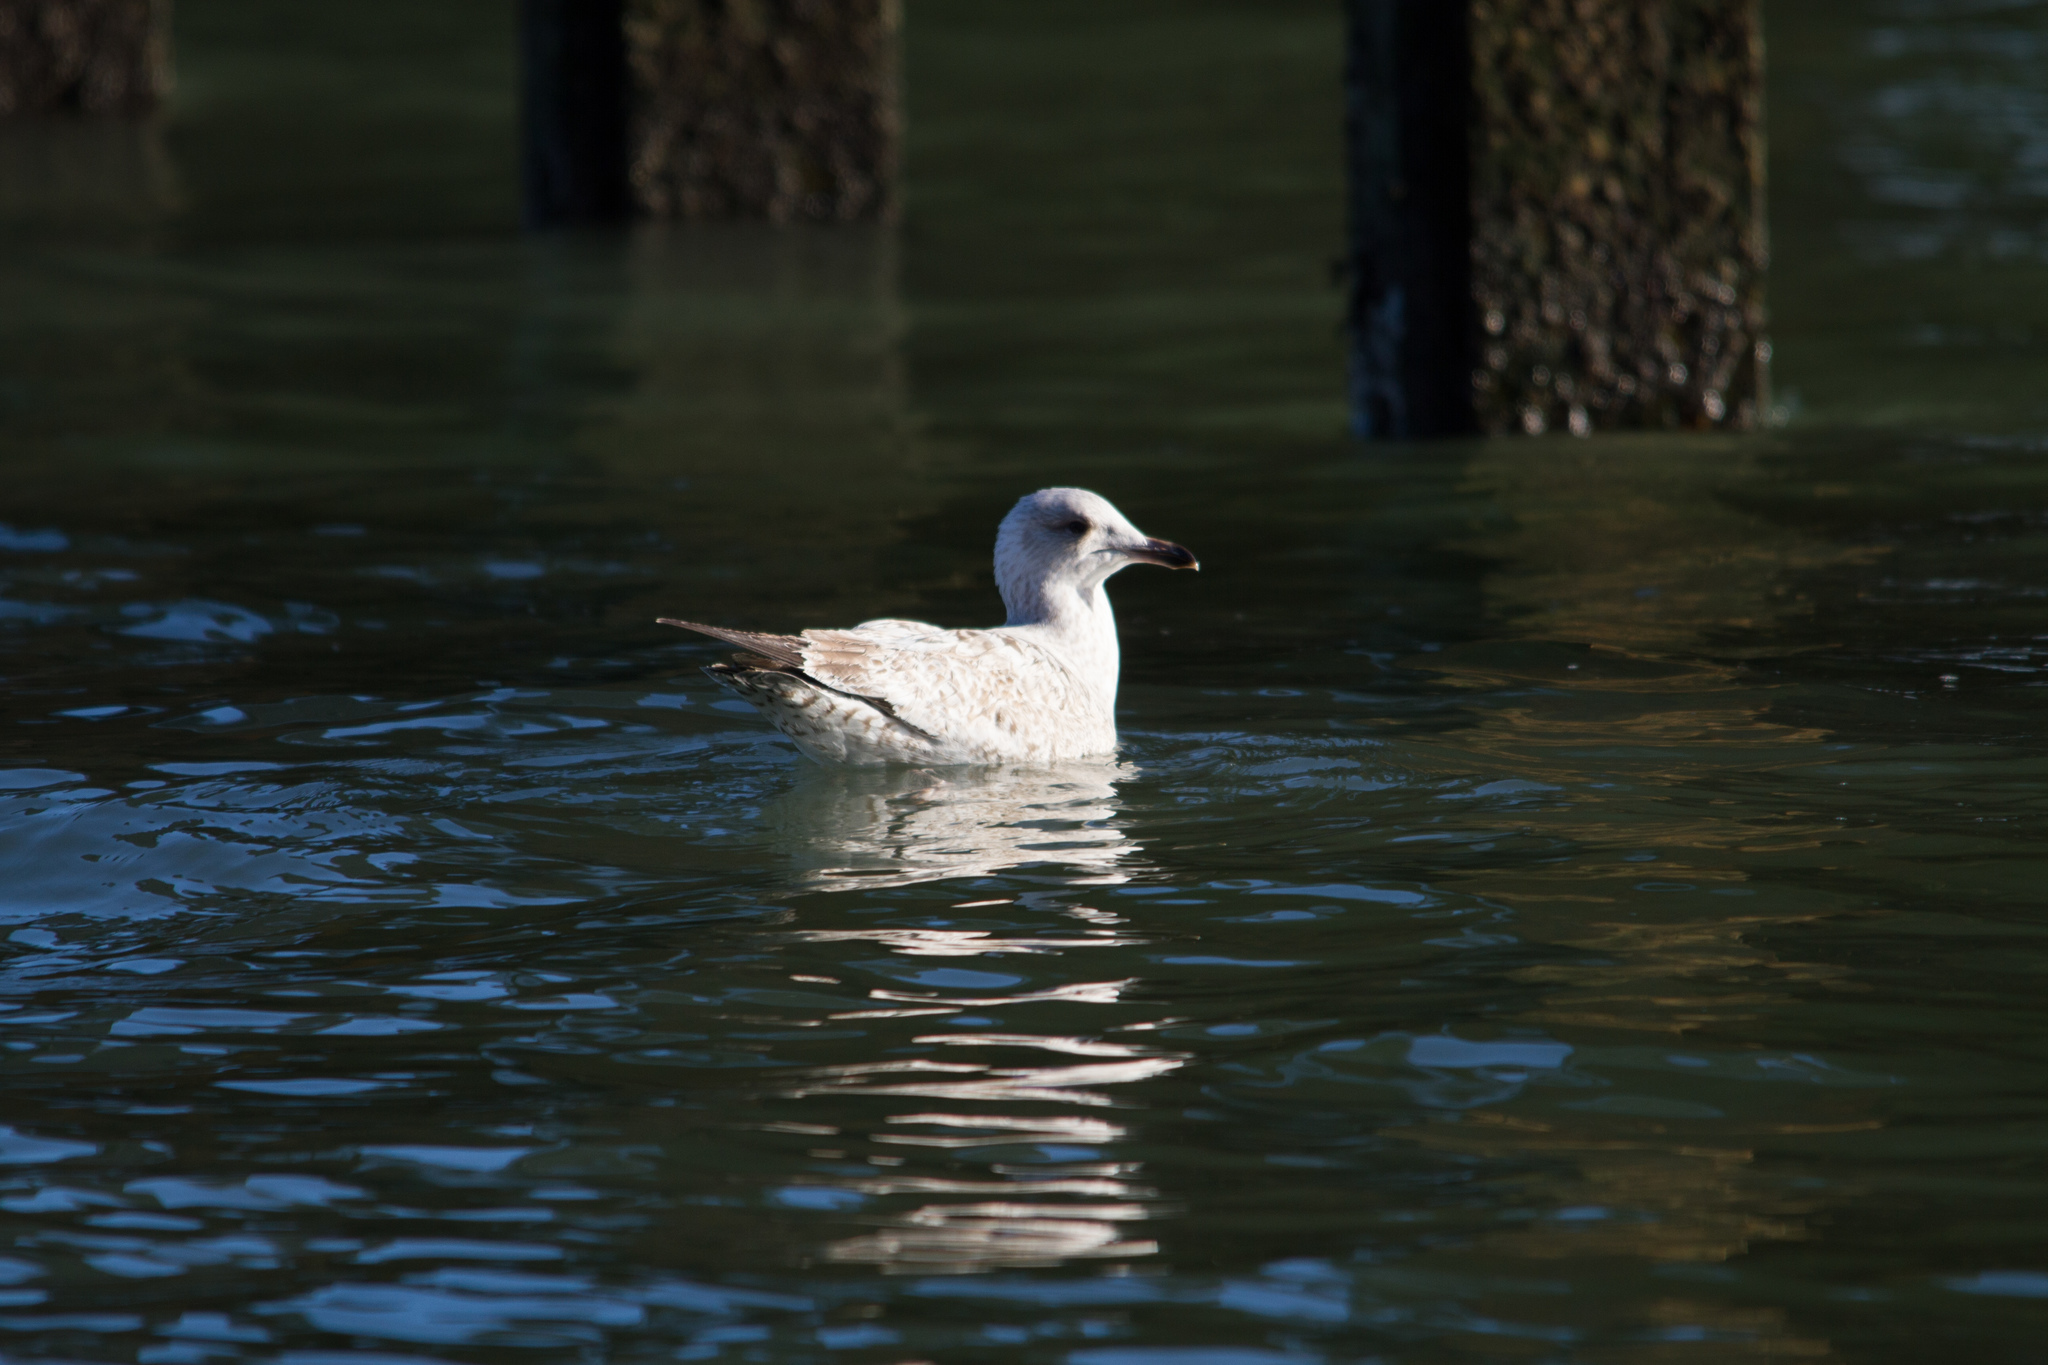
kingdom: Animalia
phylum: Chordata
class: Aves
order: Charadriiformes
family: Laridae
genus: Larus
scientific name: Larus argentatus
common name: Herring gull
